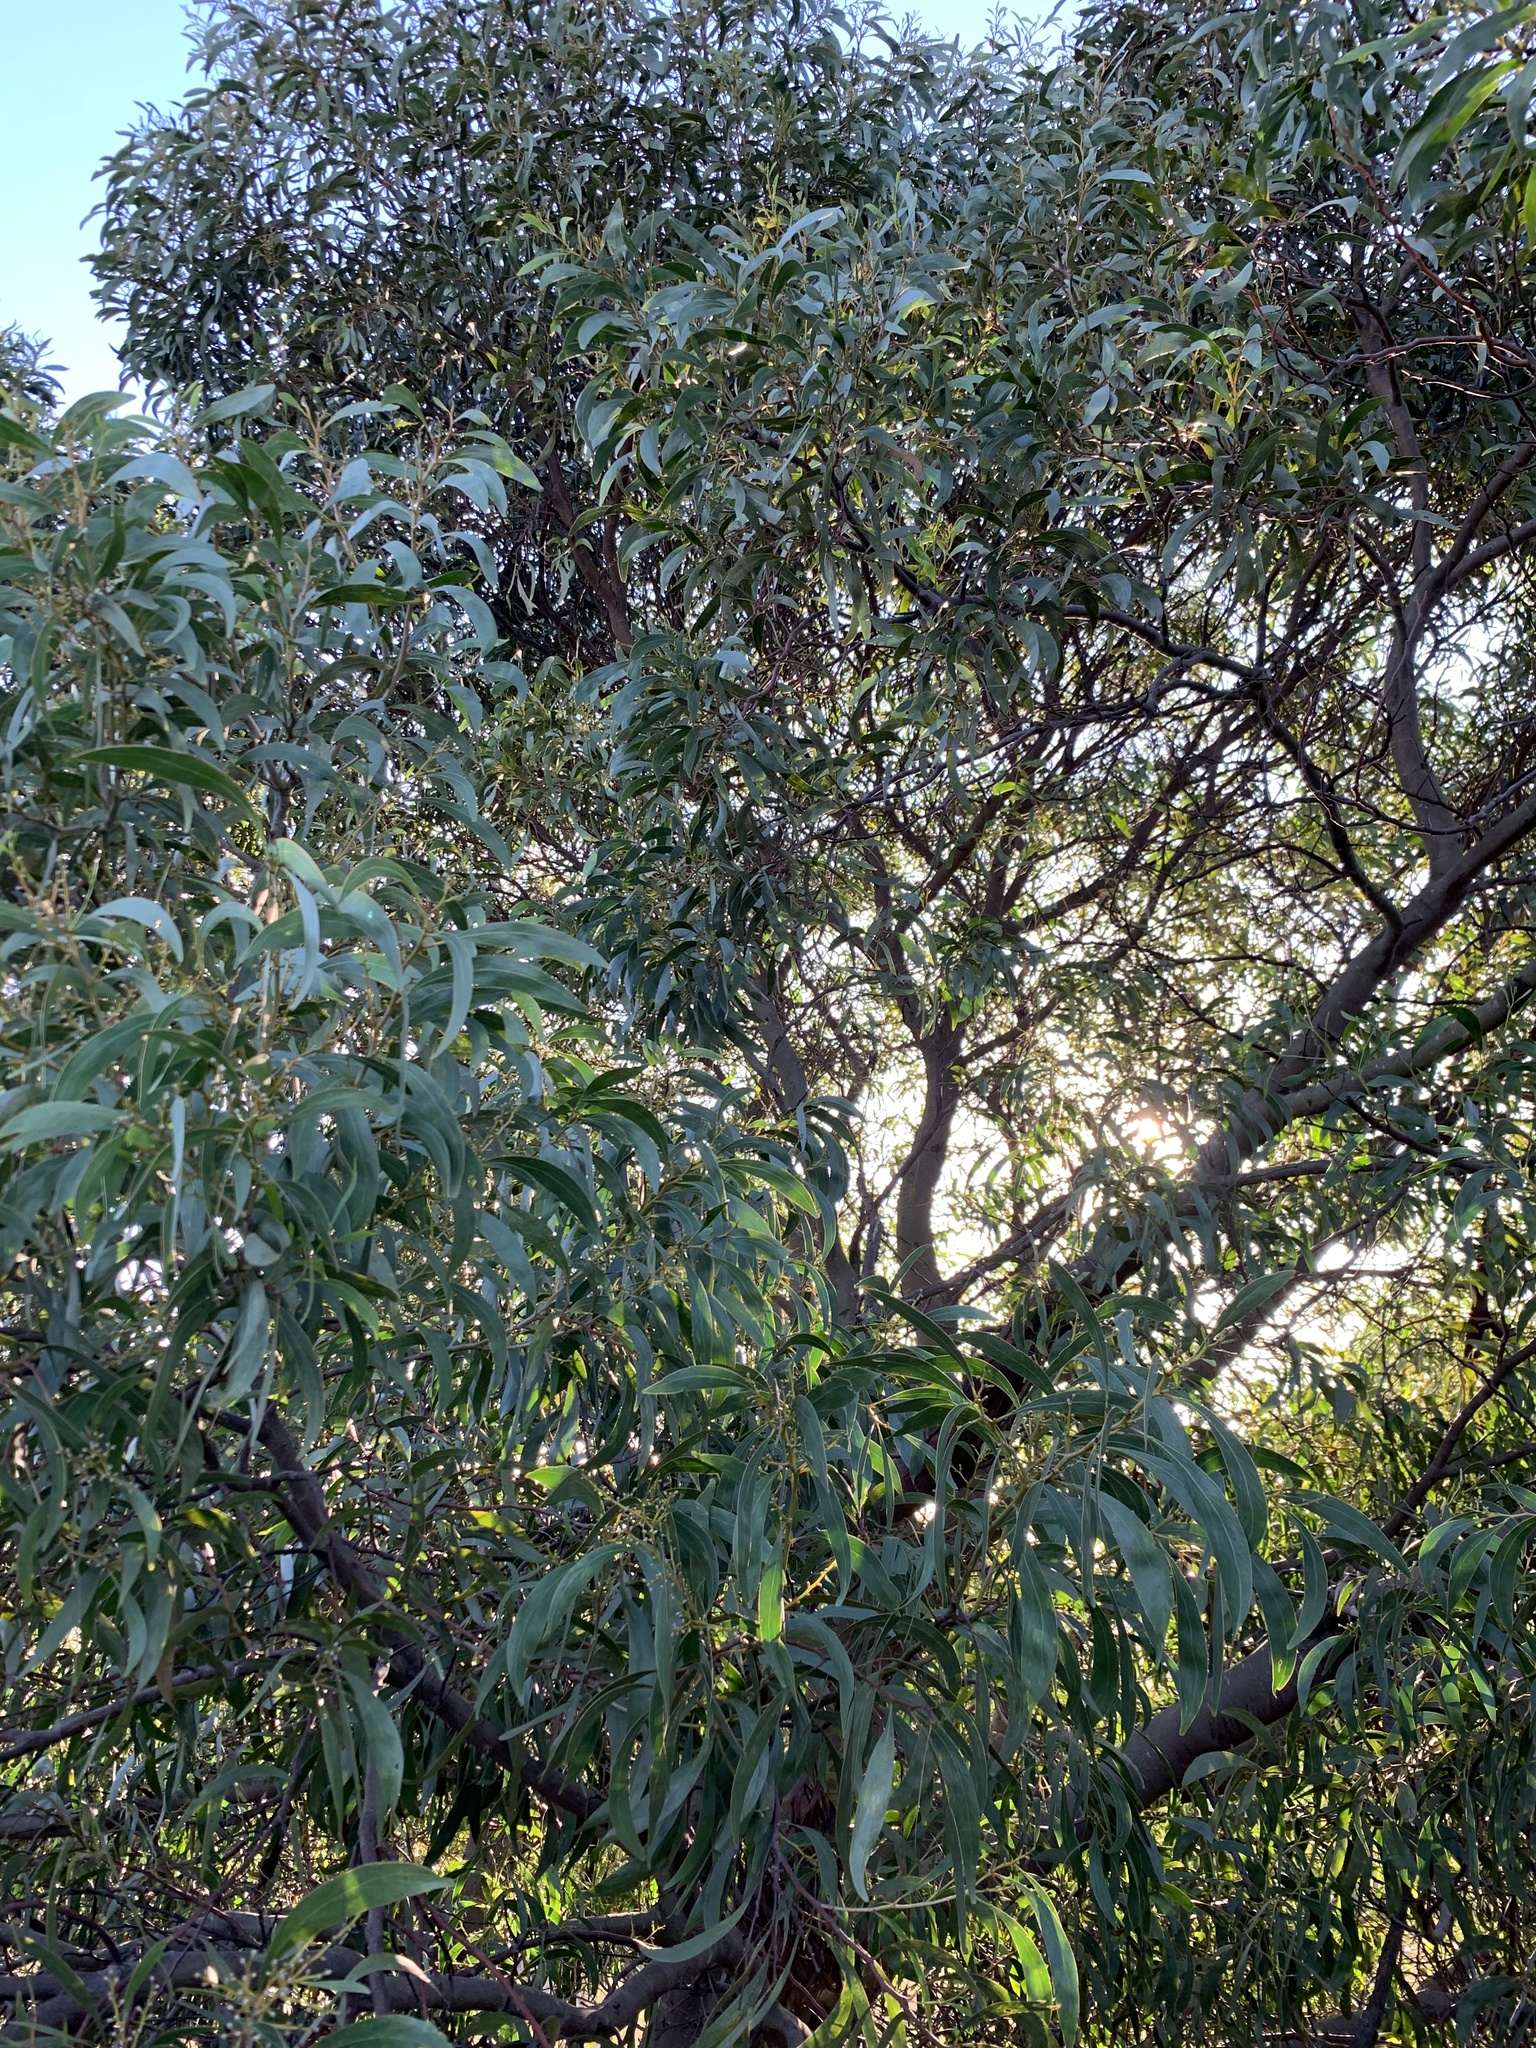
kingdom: Plantae
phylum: Tracheophyta
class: Magnoliopsida
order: Fabales
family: Fabaceae
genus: Acacia
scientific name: Acacia pycnantha
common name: Golden wattle
